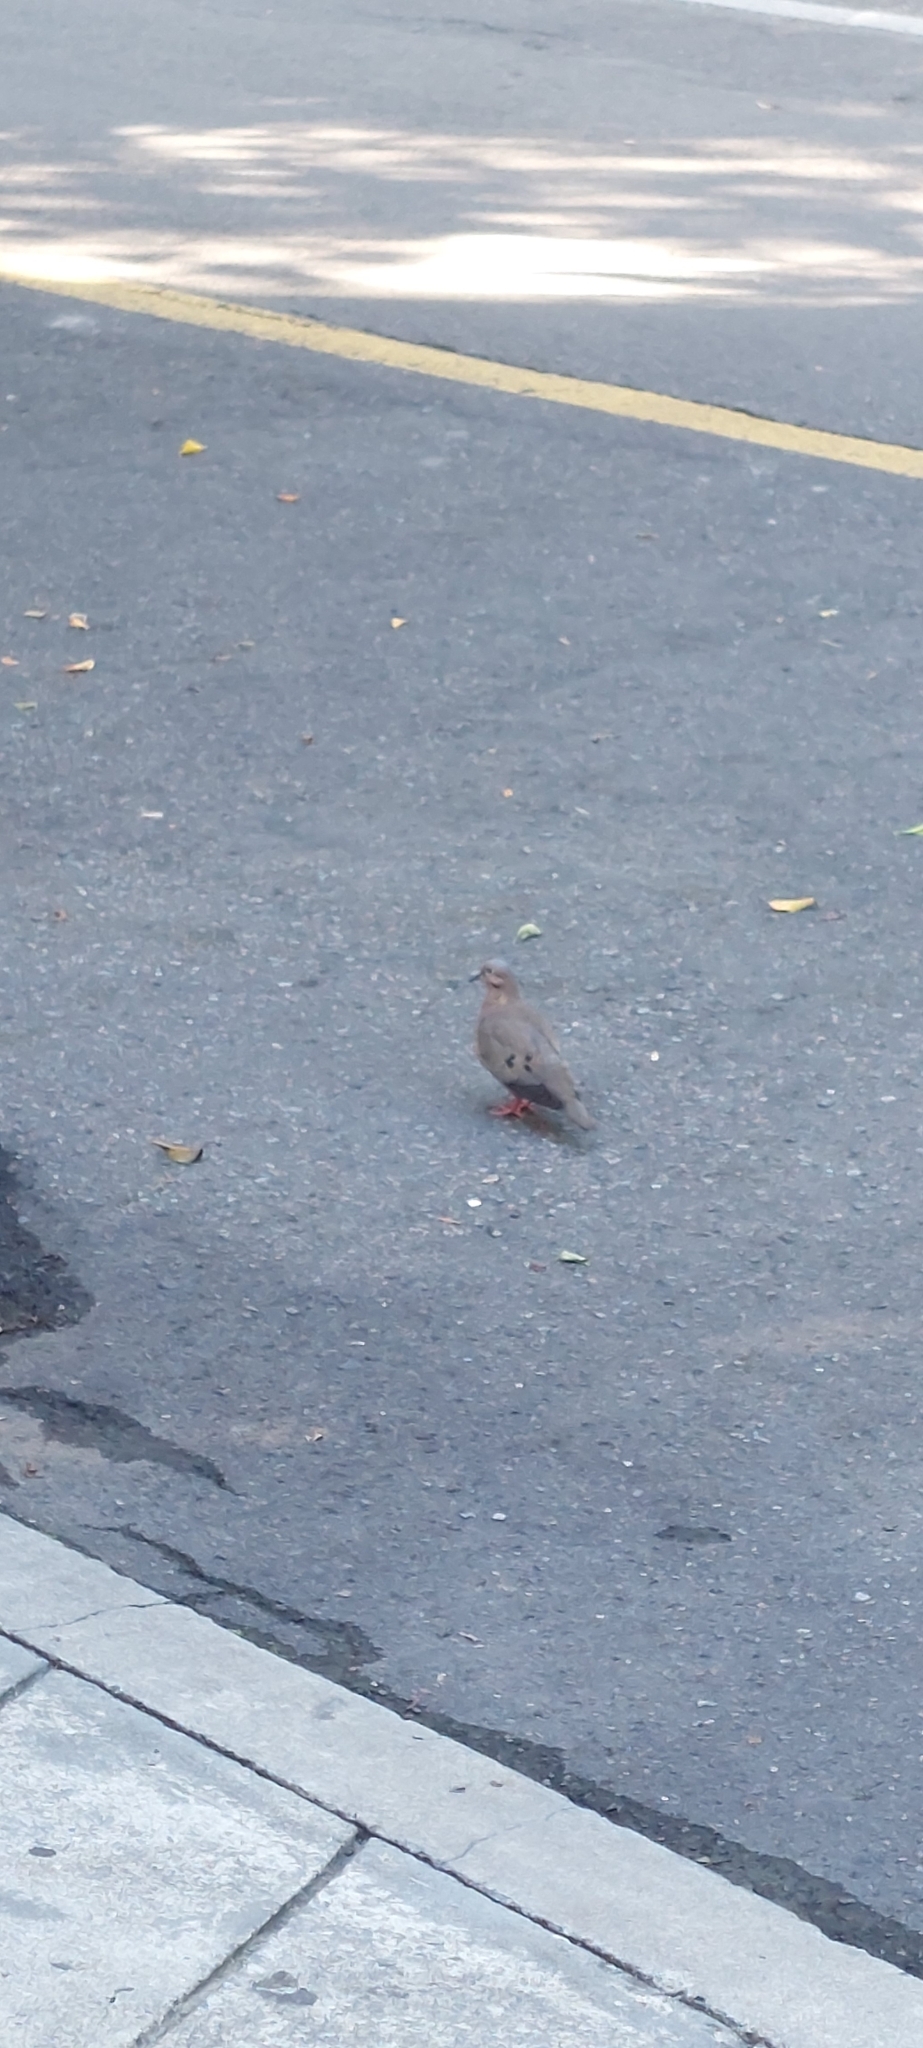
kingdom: Animalia
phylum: Chordata
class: Aves
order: Columbiformes
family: Columbidae
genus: Zenaida
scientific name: Zenaida auriculata
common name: Eared dove
